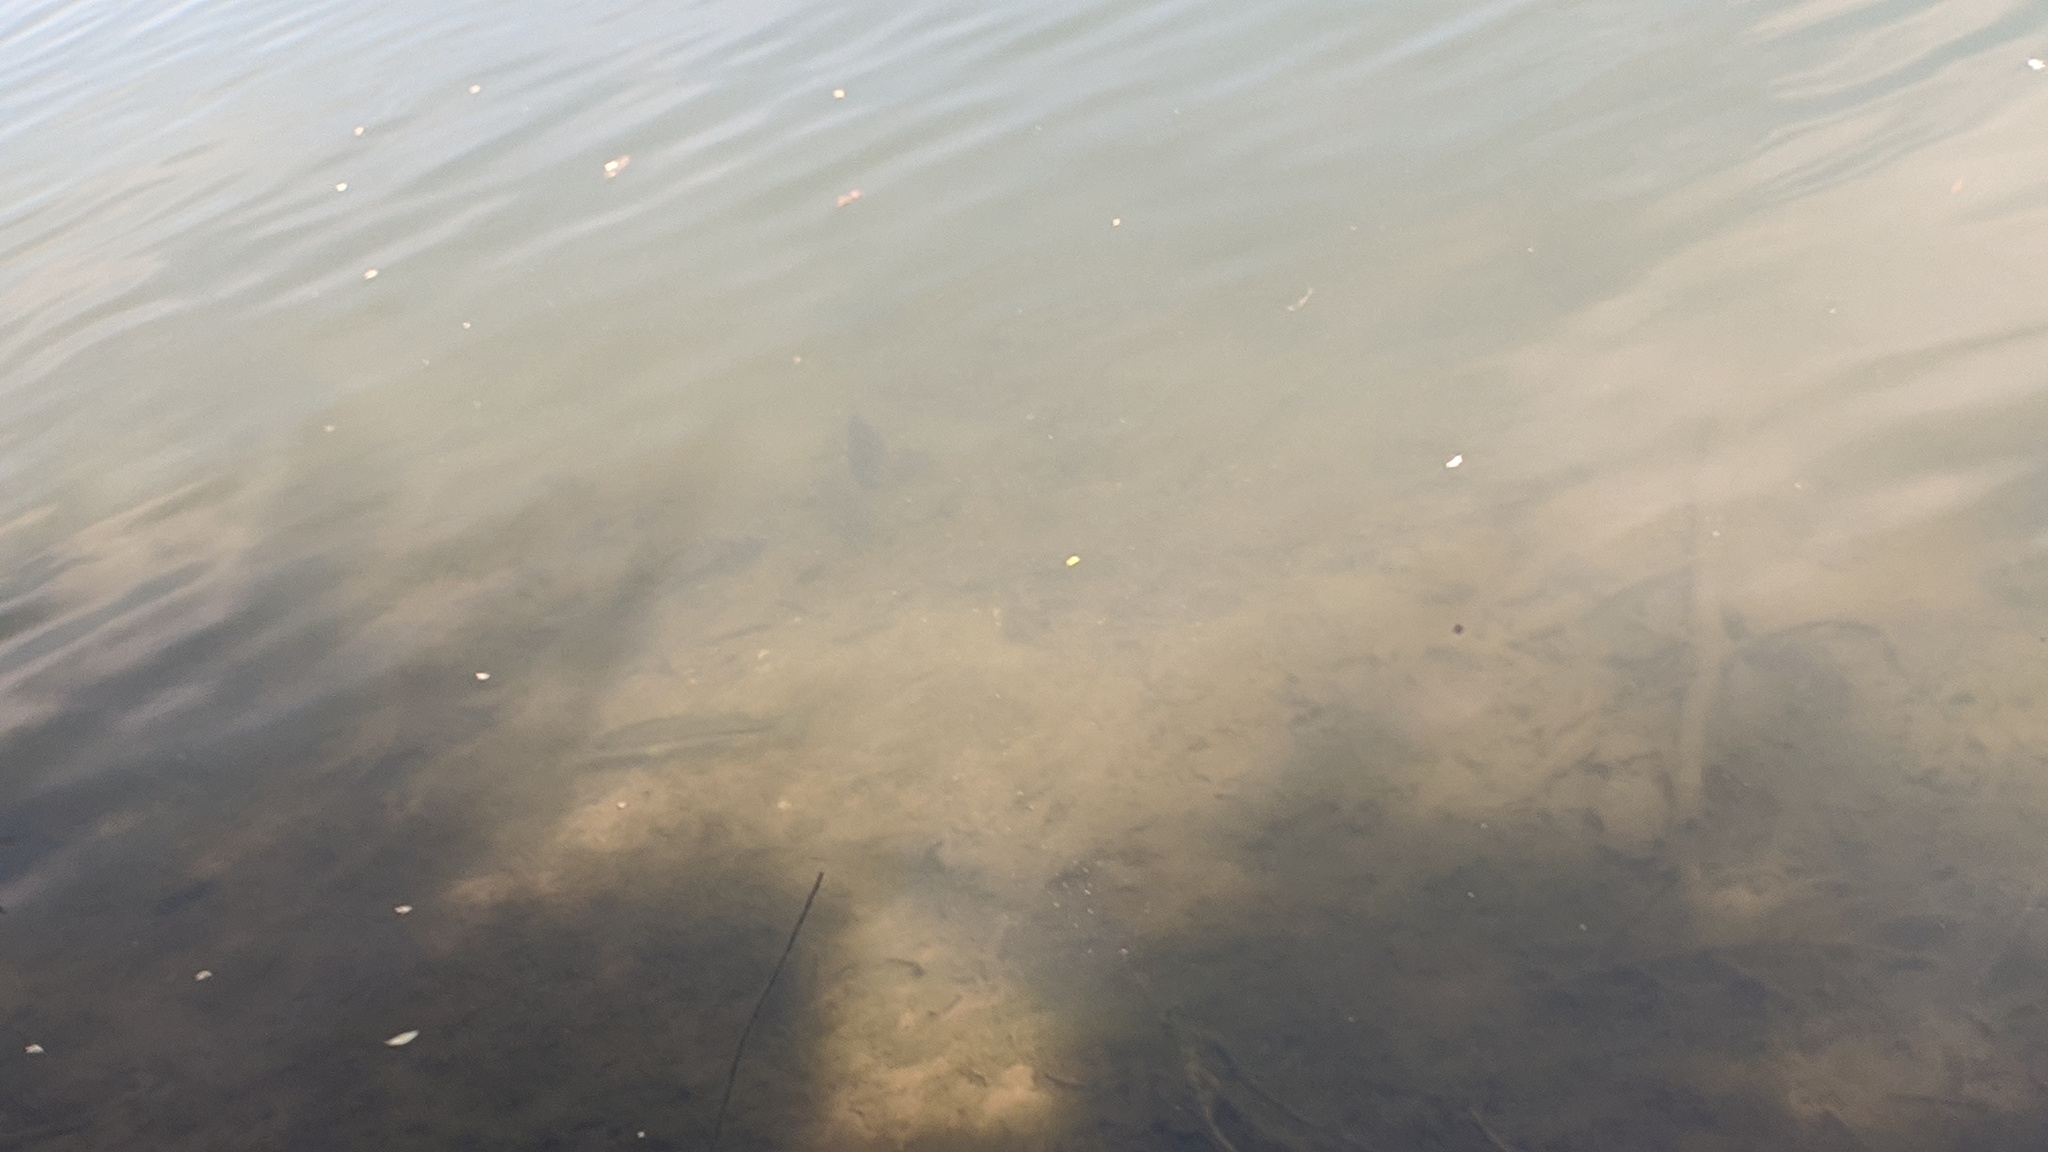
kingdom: Animalia
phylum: Chordata
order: Perciformes
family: Centrarchidae
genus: Micropterus
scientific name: Micropterus
